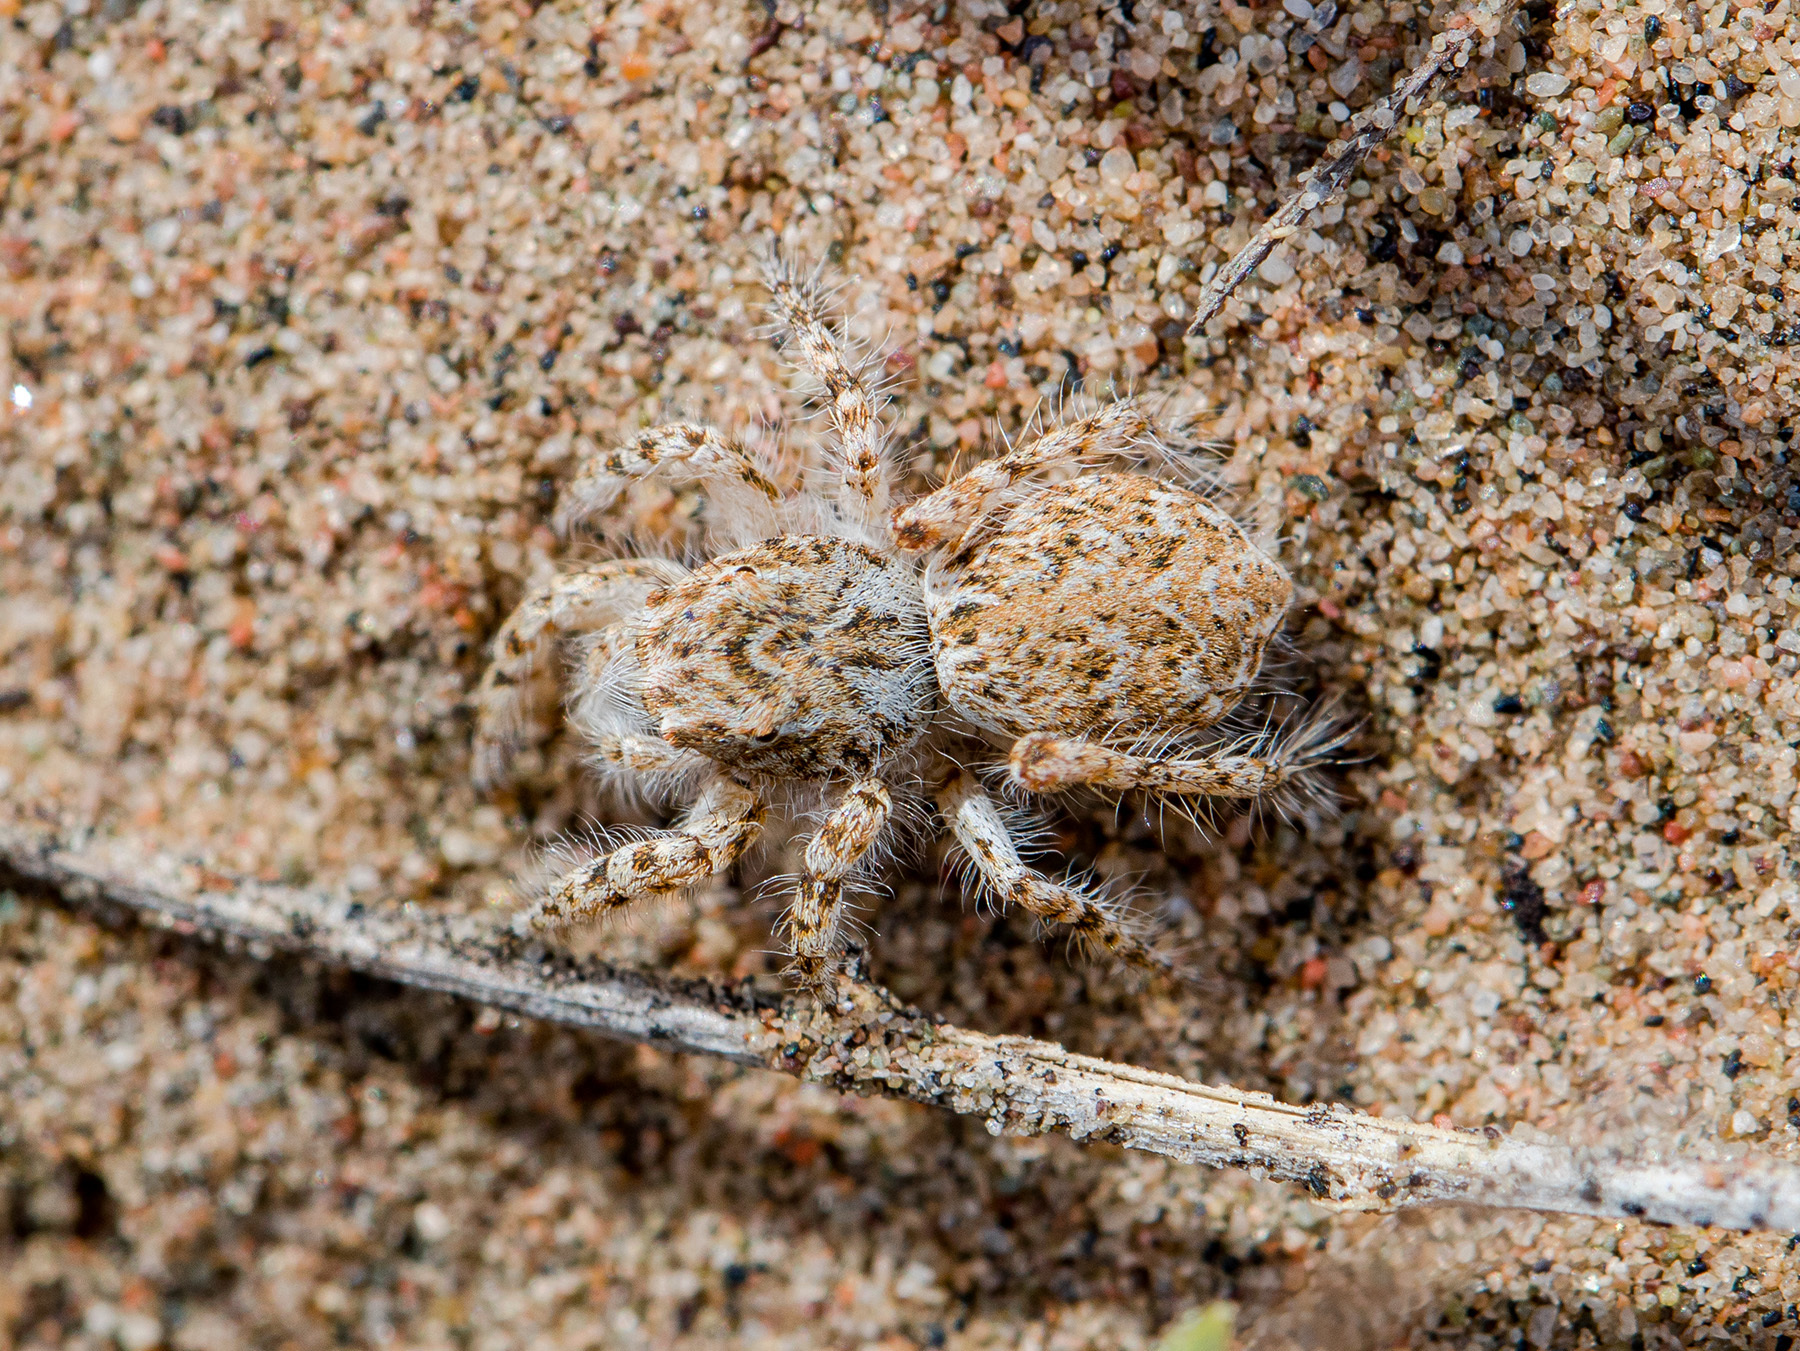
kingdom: Animalia
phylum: Arthropoda
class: Arachnida
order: Araneae
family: Salticidae
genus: Yllenus
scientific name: Yllenus turkestanicus
